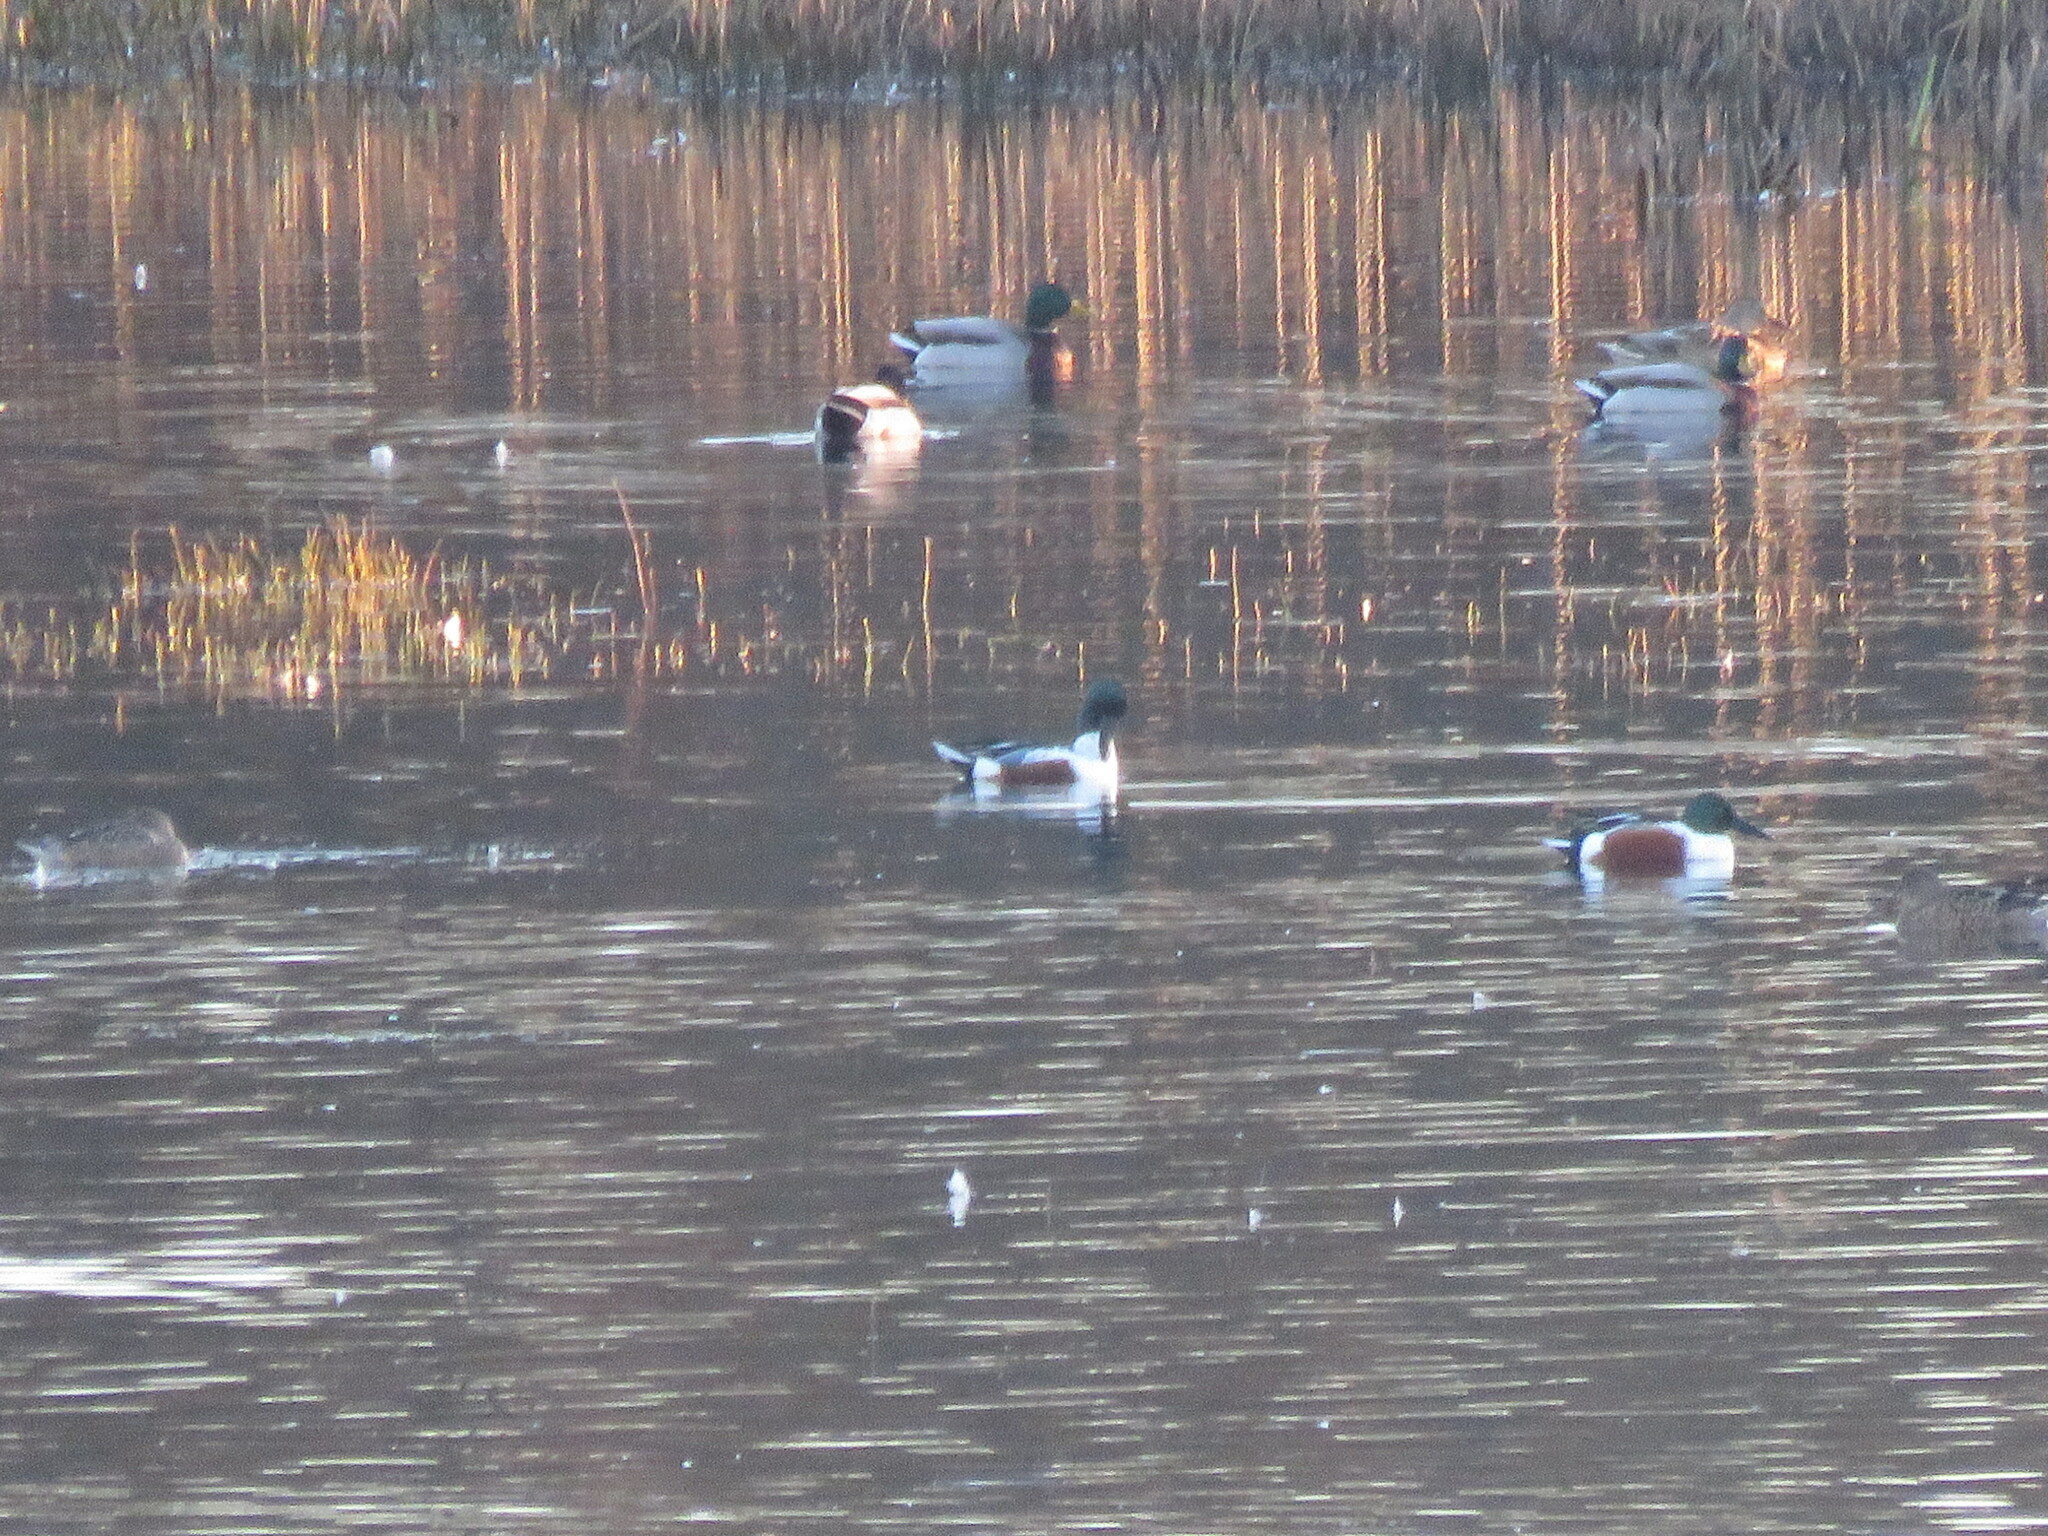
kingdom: Animalia
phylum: Chordata
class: Aves
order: Anseriformes
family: Anatidae
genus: Spatula
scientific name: Spatula clypeata
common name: Northern shoveler
